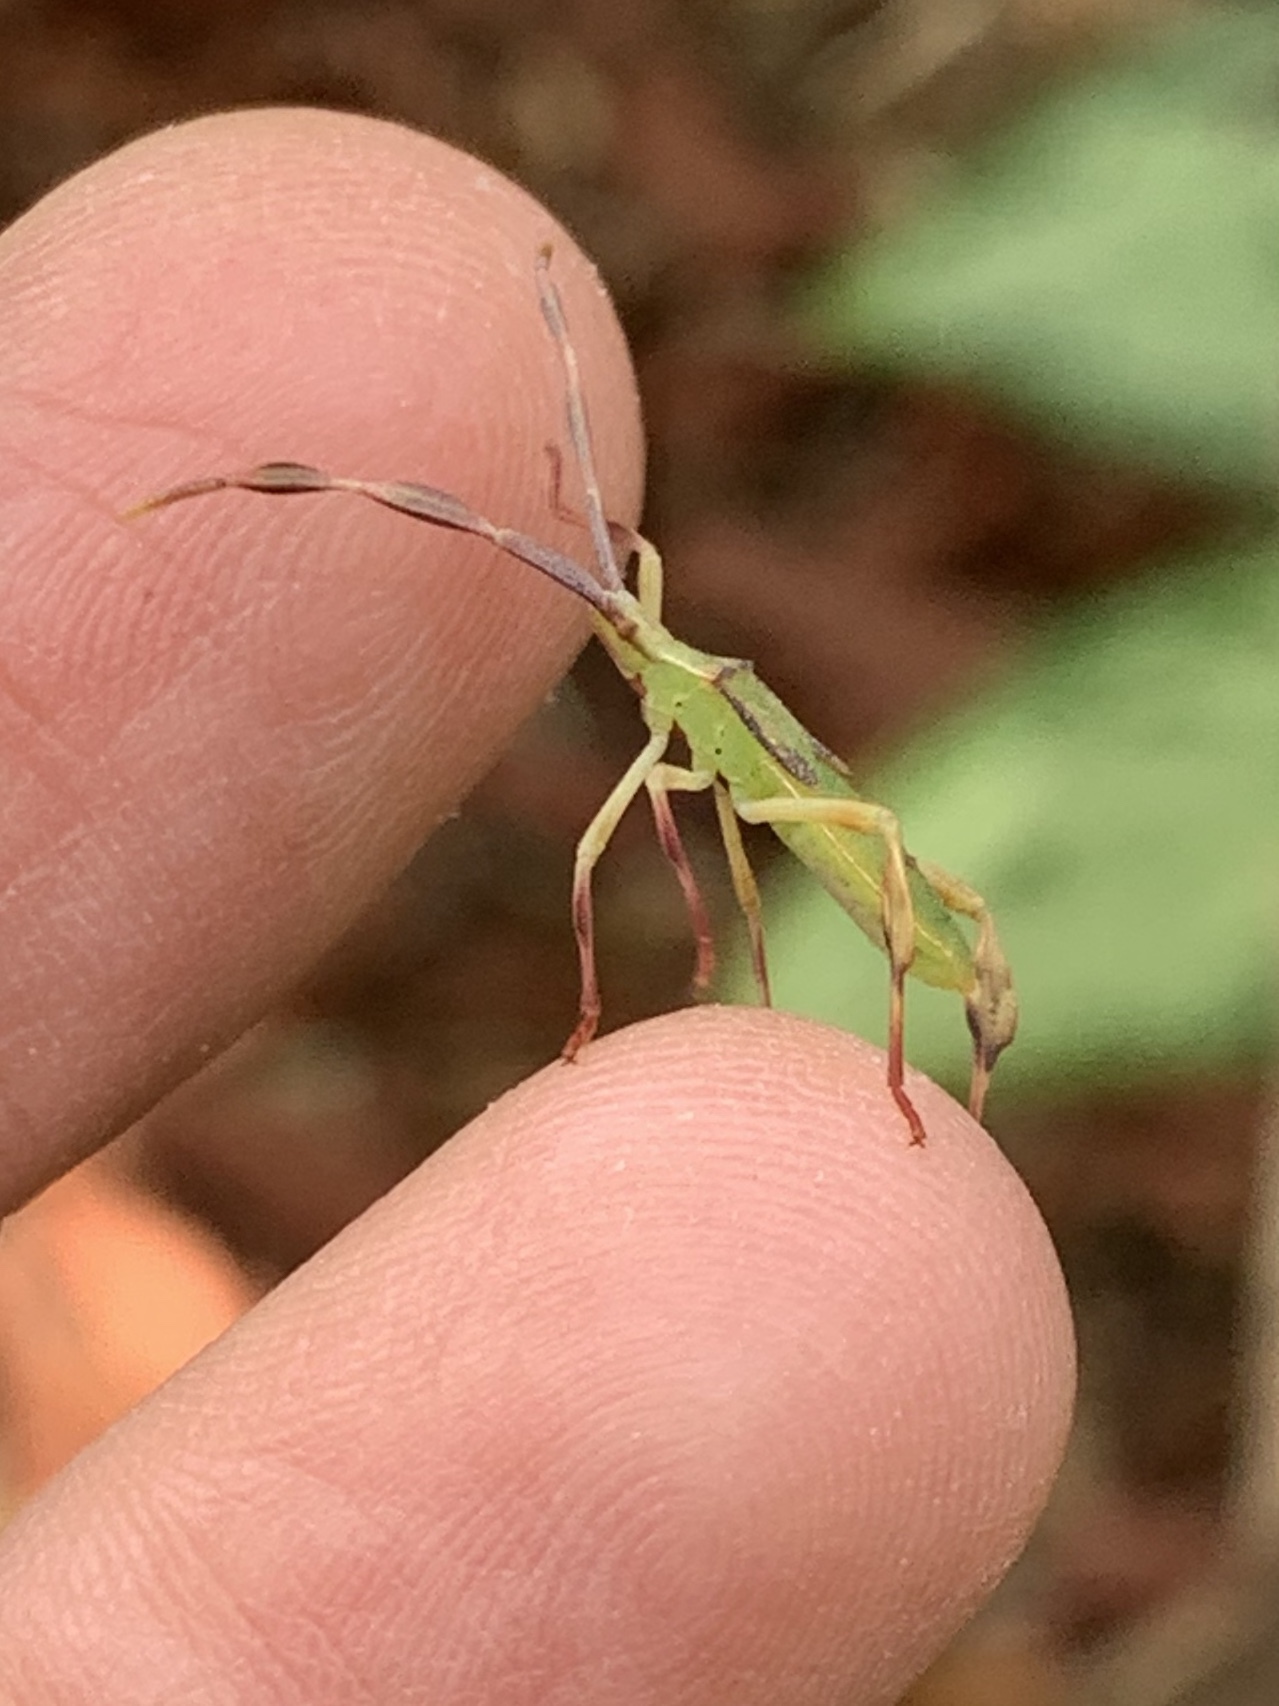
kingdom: Animalia
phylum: Arthropoda
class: Insecta
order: Hemiptera
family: Coreidae
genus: Chondrocera
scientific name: Chondrocera laticornis
